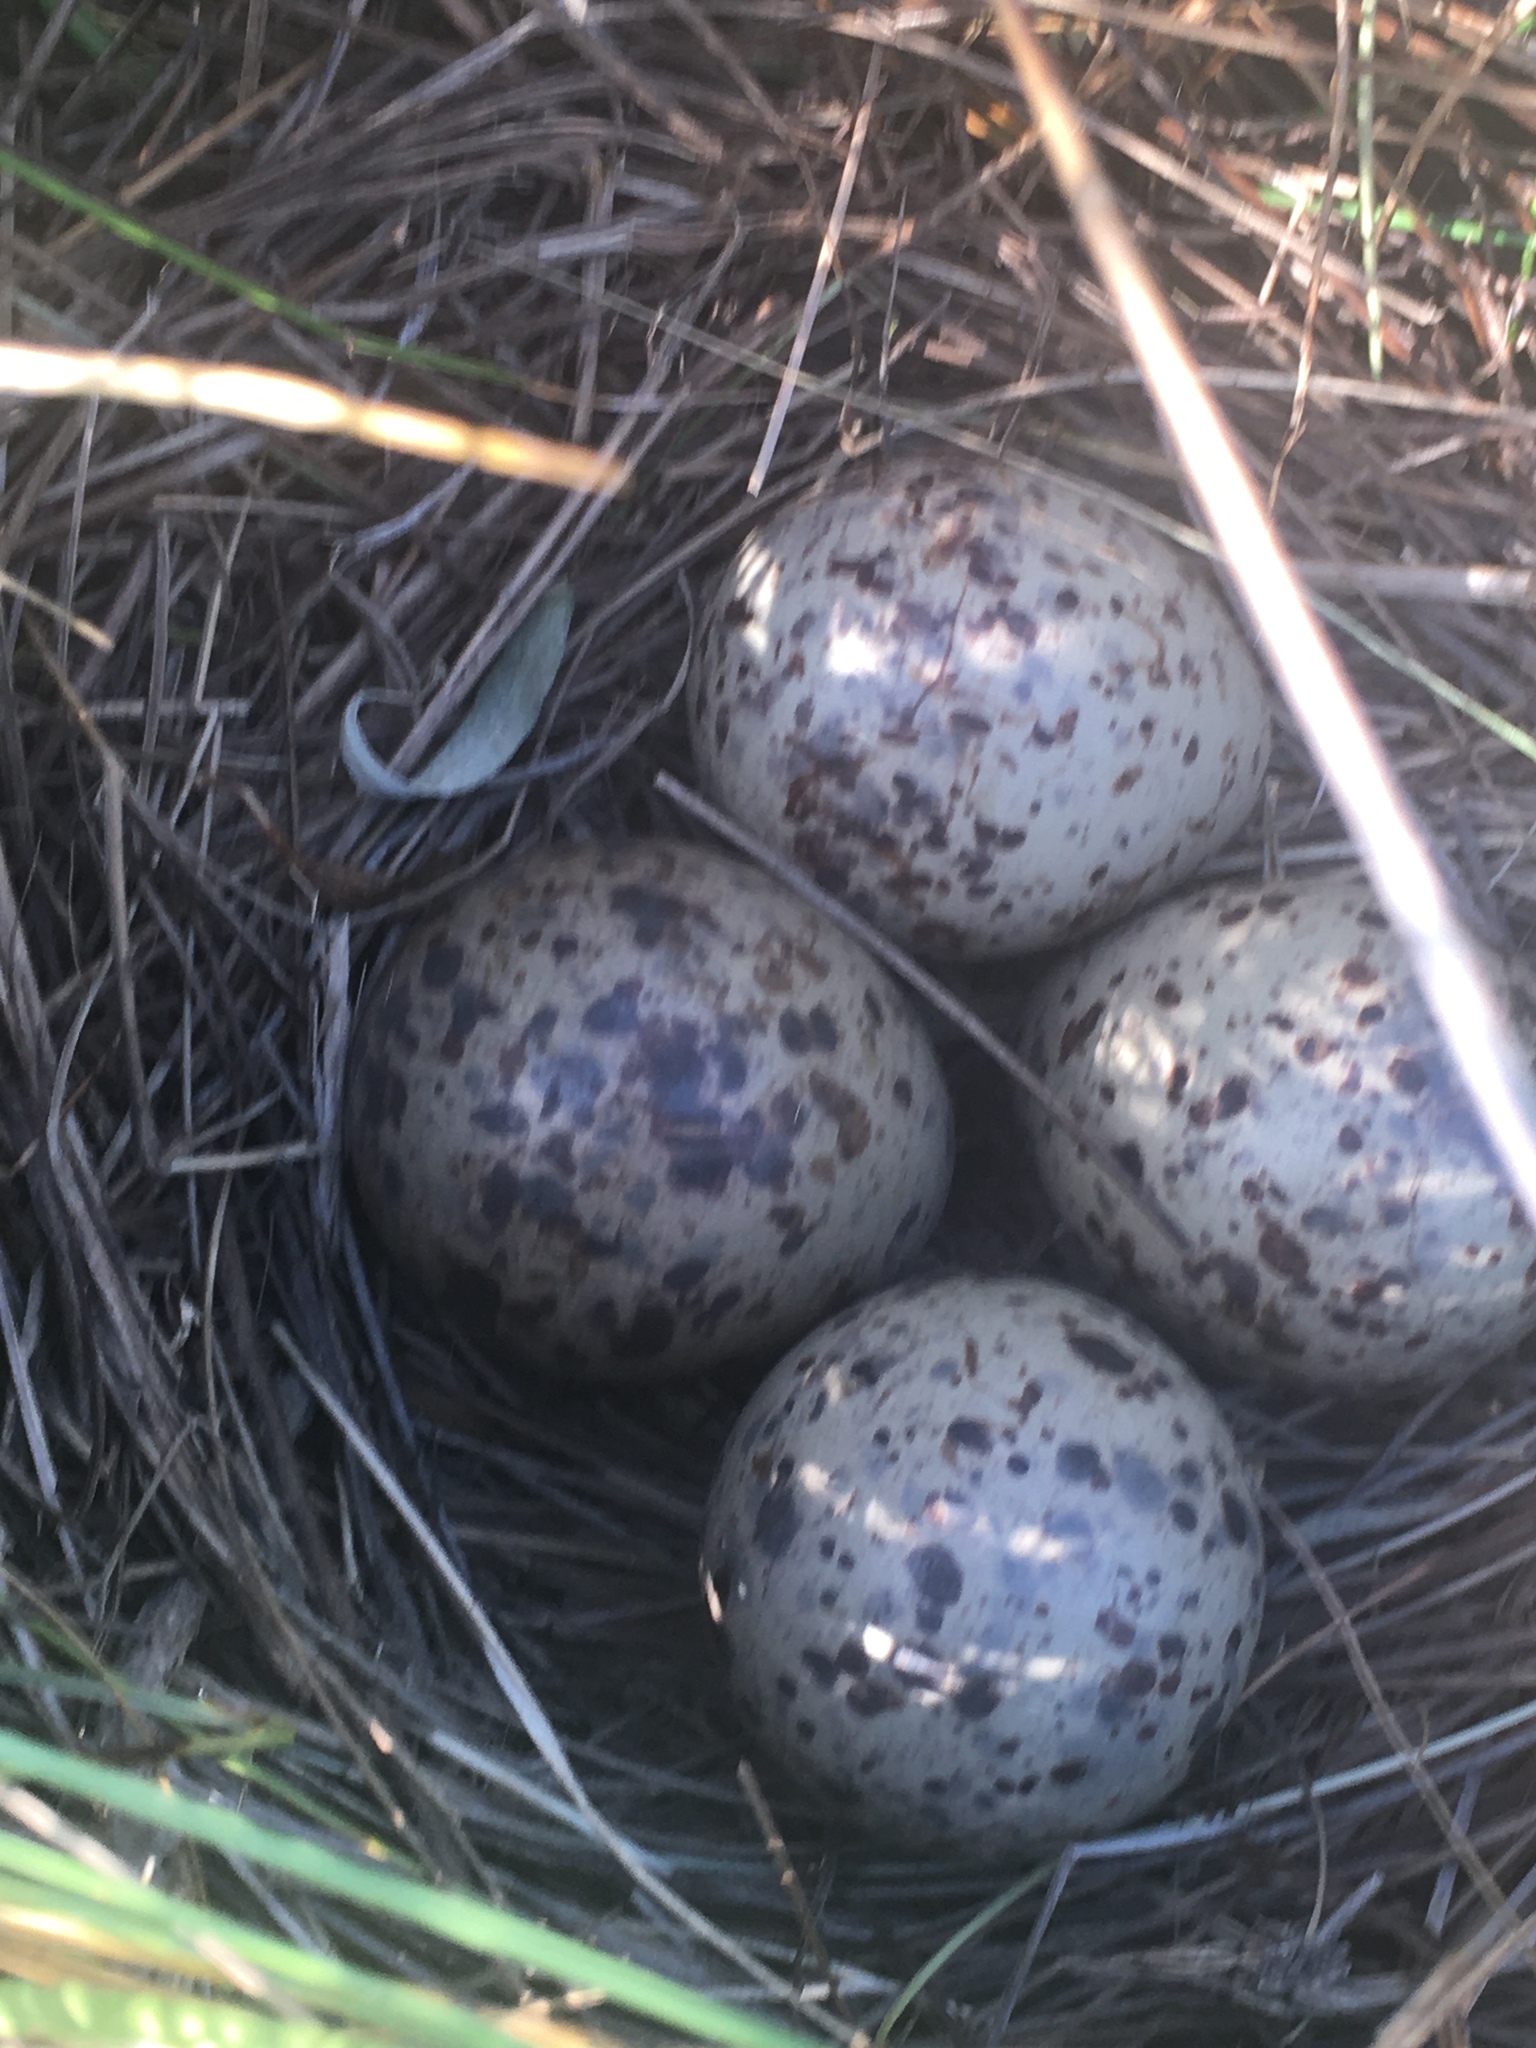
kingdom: Animalia
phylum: Chordata
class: Aves
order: Charadriiformes
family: Scolopacidae
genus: Tringa
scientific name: Tringa semipalmata
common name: Willet
